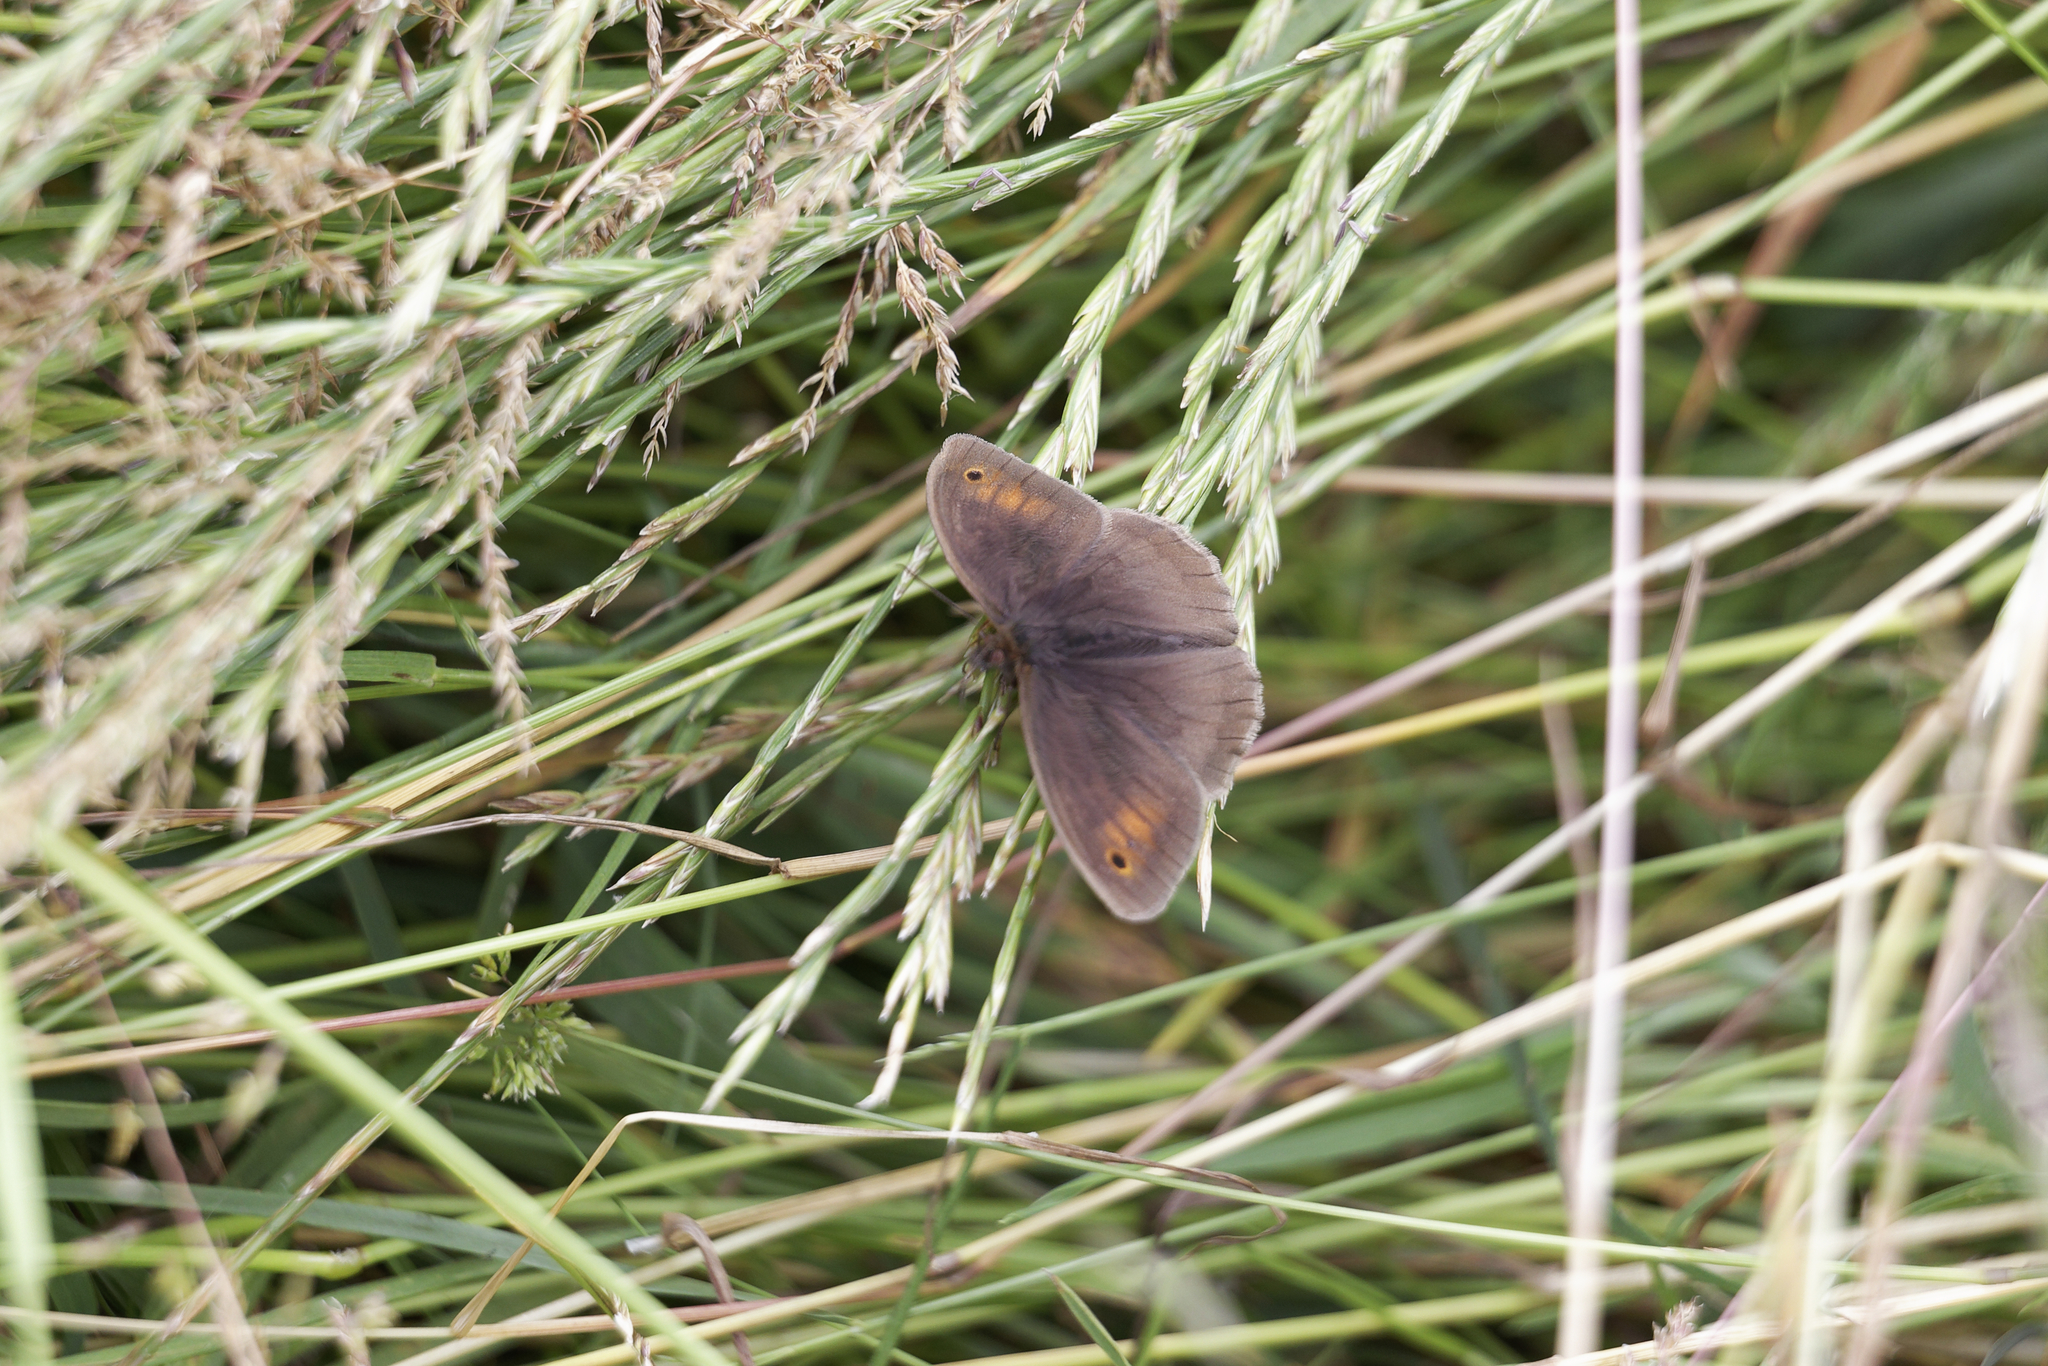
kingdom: Animalia
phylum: Arthropoda
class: Insecta
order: Lepidoptera
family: Nymphalidae
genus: Maniola
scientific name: Maniola jurtina
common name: Meadow brown
